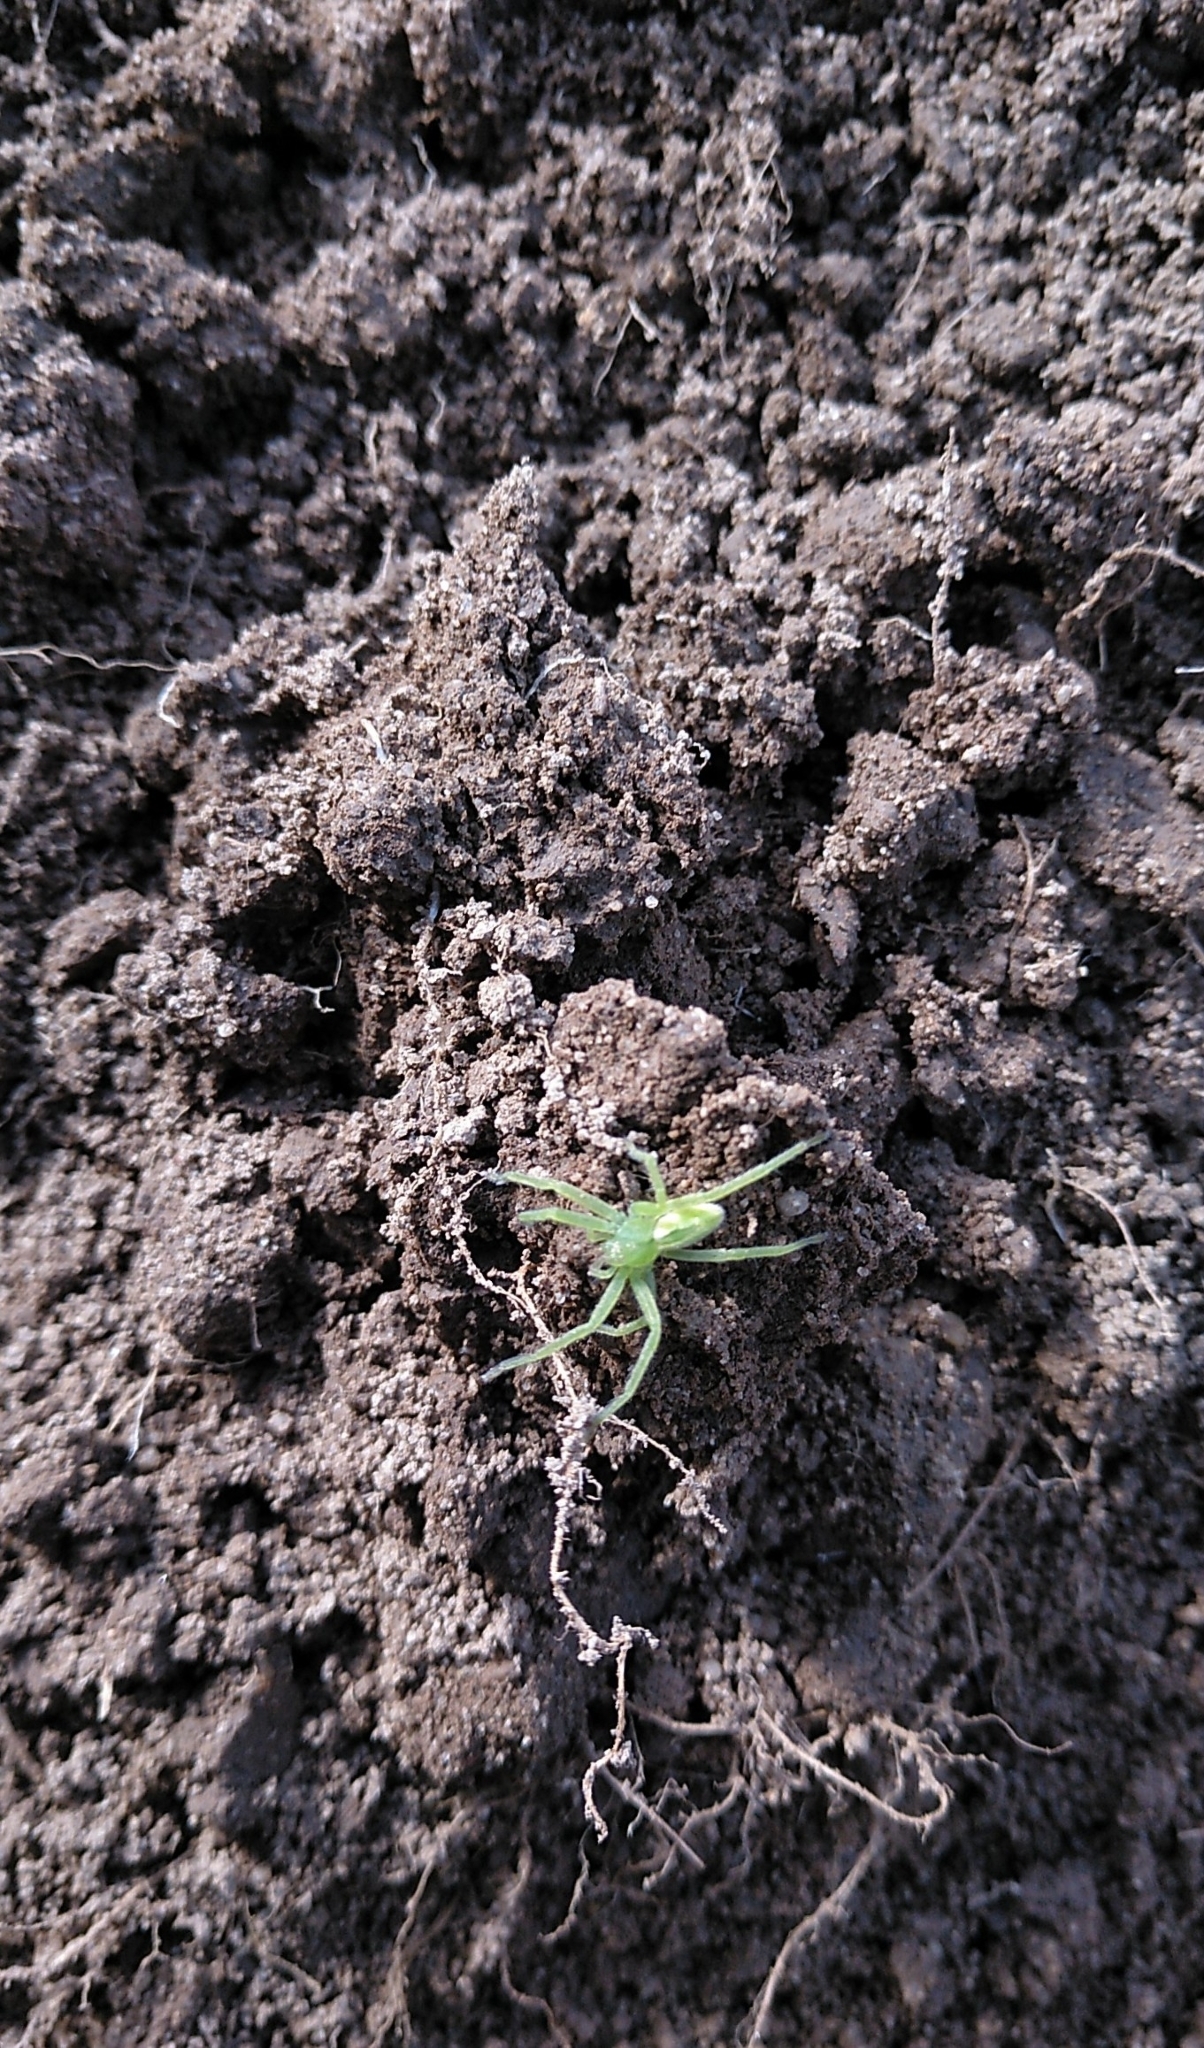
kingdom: Animalia
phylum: Arthropoda
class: Arachnida
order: Araneae
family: Sparassidae
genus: Micrommata
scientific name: Micrommata virescens
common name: Green spider
